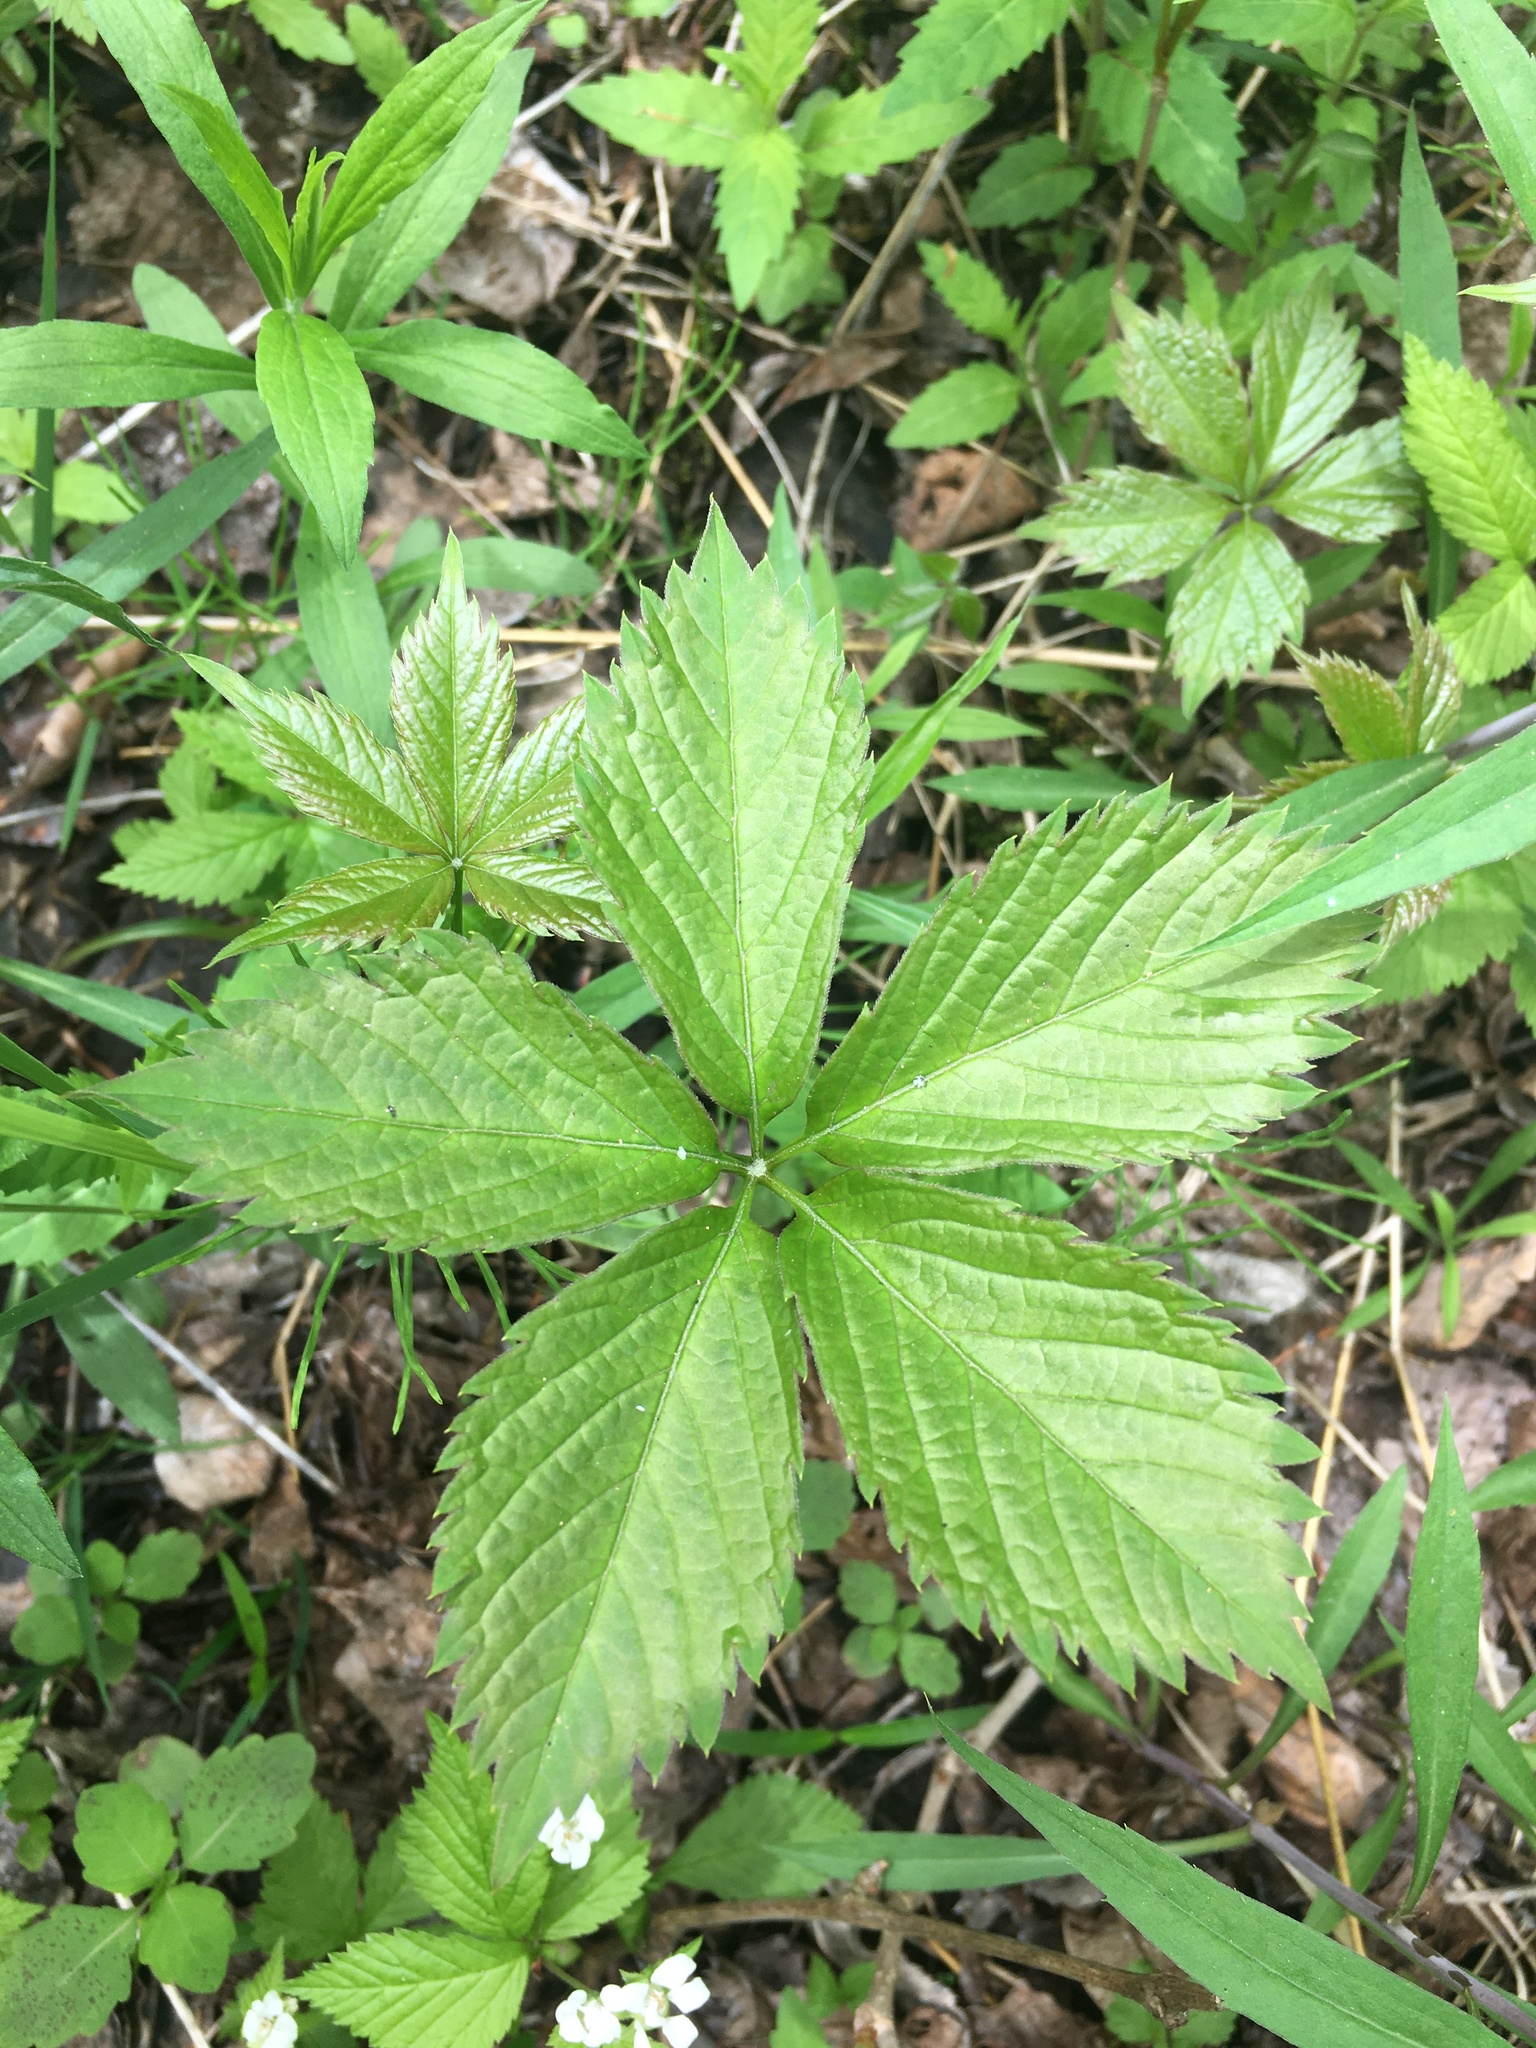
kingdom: Plantae
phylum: Tracheophyta
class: Magnoliopsida
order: Vitales
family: Vitaceae
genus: Parthenocissus
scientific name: Parthenocissus inserta
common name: False virginia-creeper
